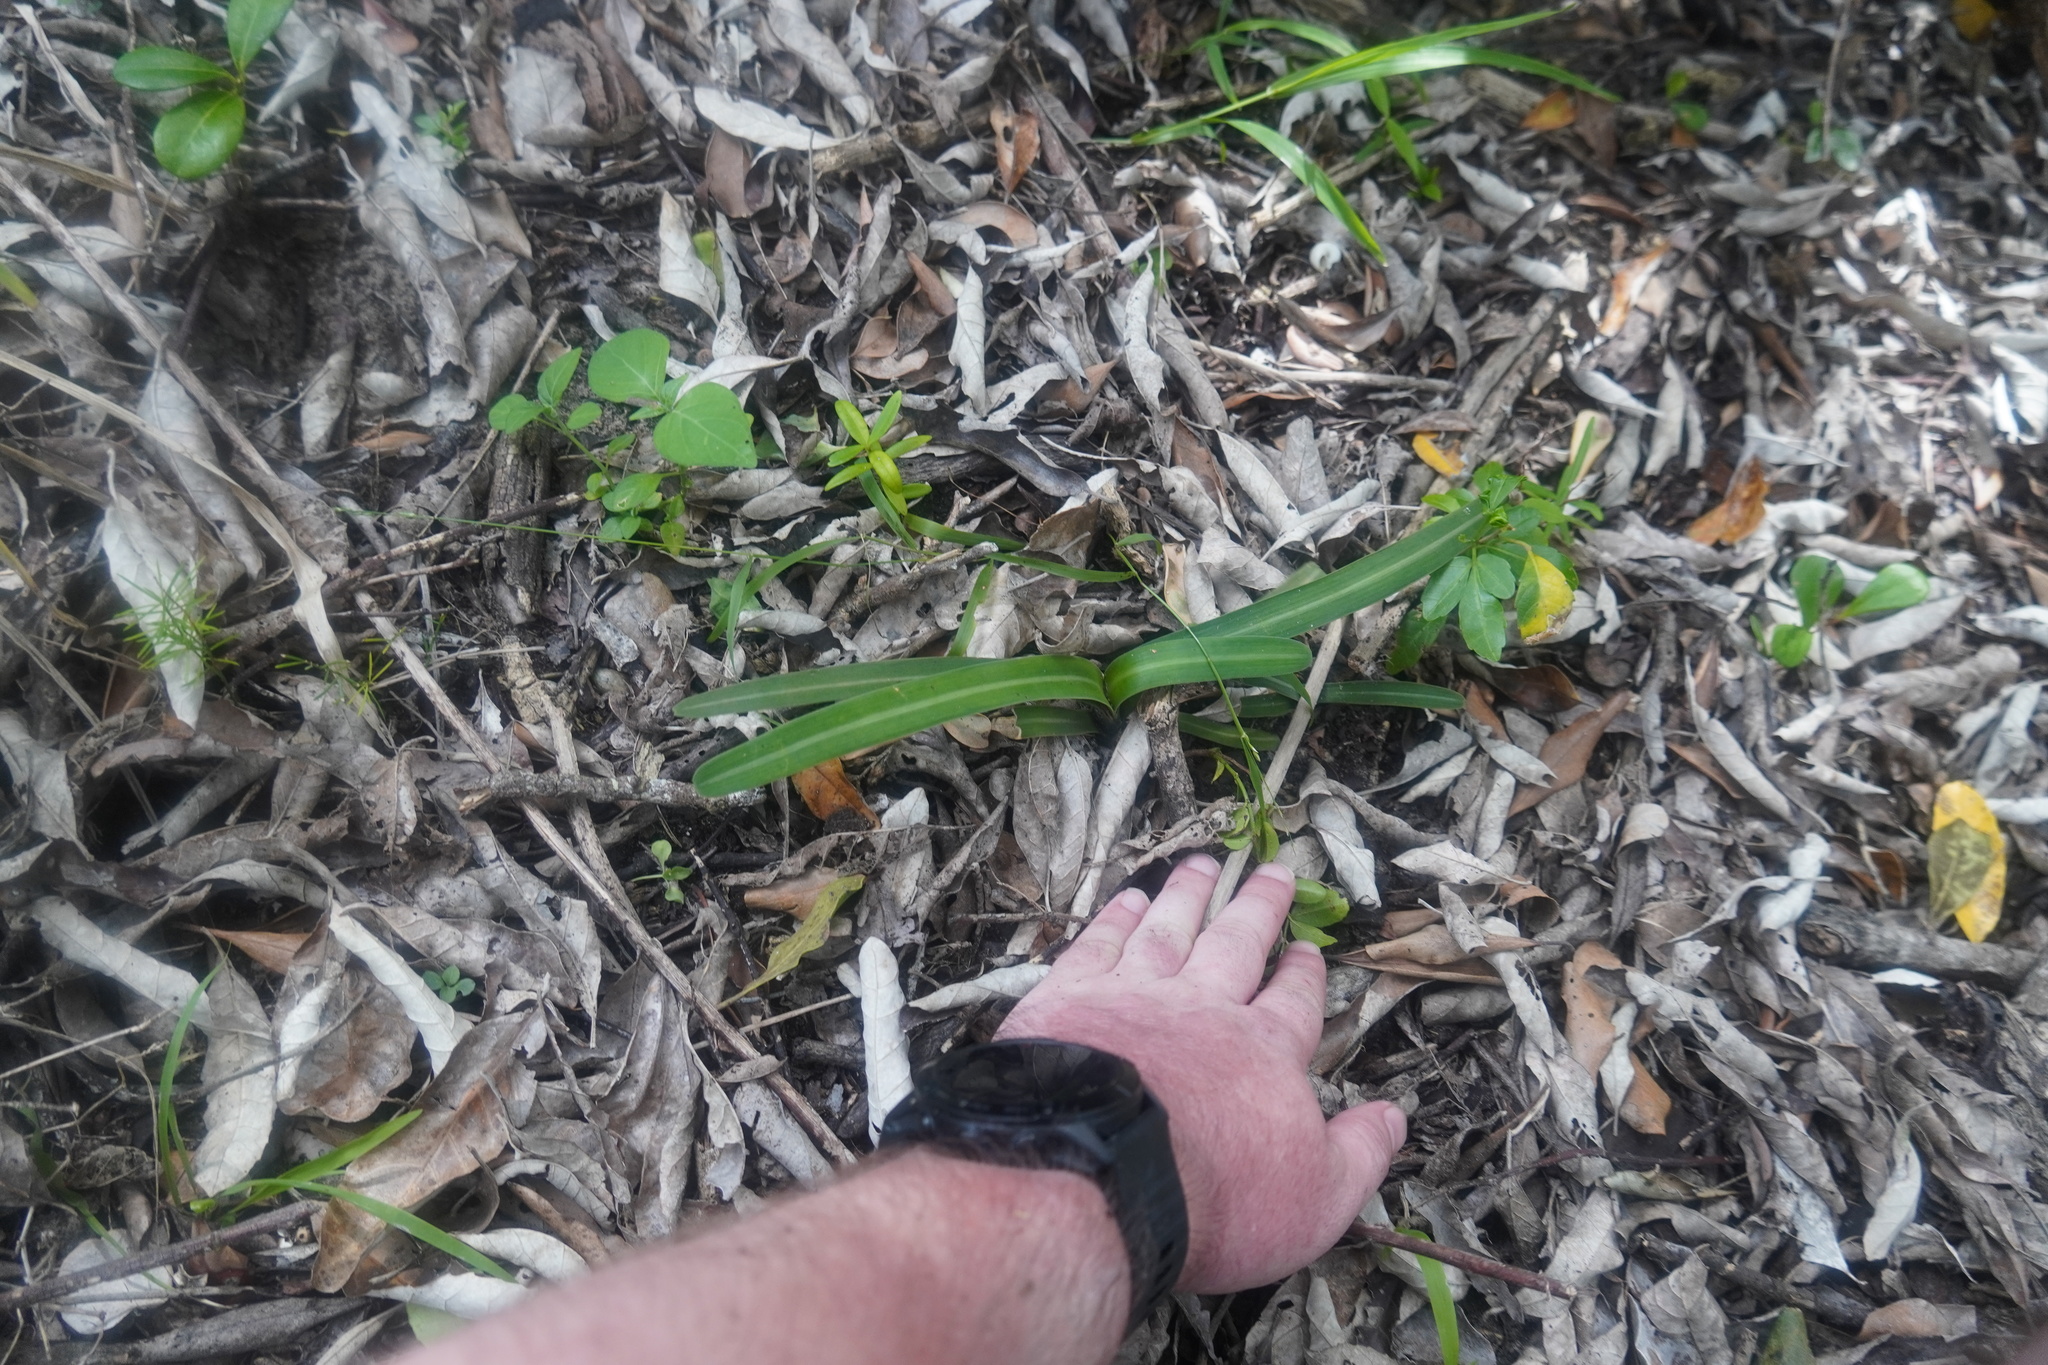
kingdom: Plantae
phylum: Tracheophyta
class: Liliopsida
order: Asparagales
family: Amaryllidaceae
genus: Clivia
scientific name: Clivia nobilis
